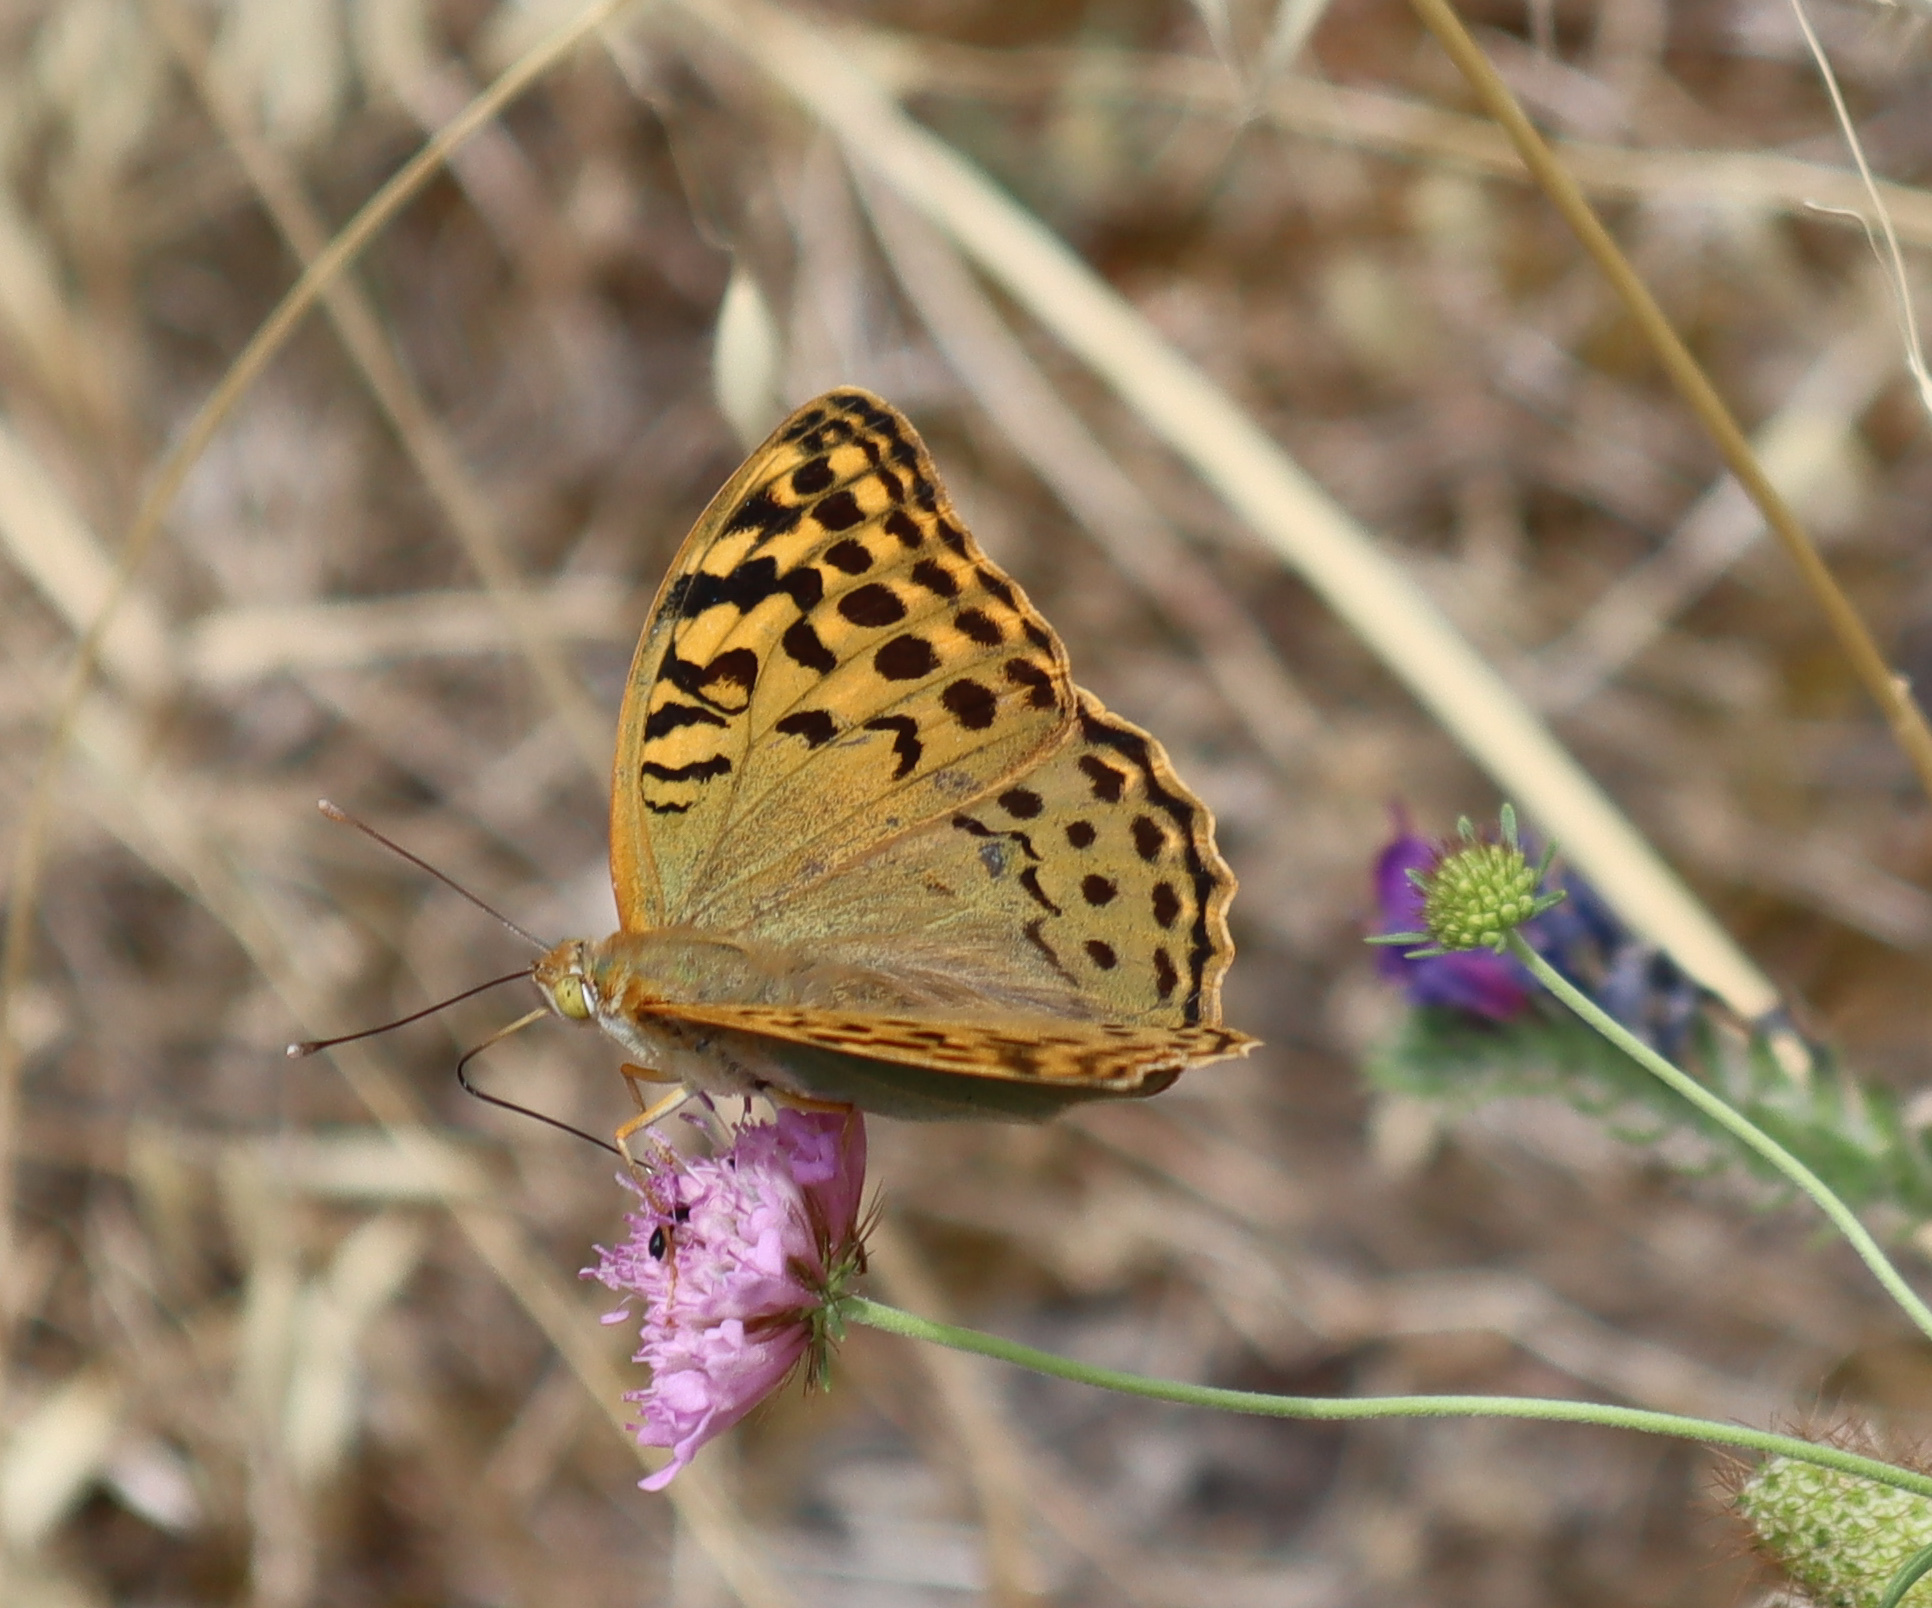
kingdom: Animalia
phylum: Arthropoda
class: Insecta
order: Lepidoptera
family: Nymphalidae
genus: Damora
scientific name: Damora pandora
